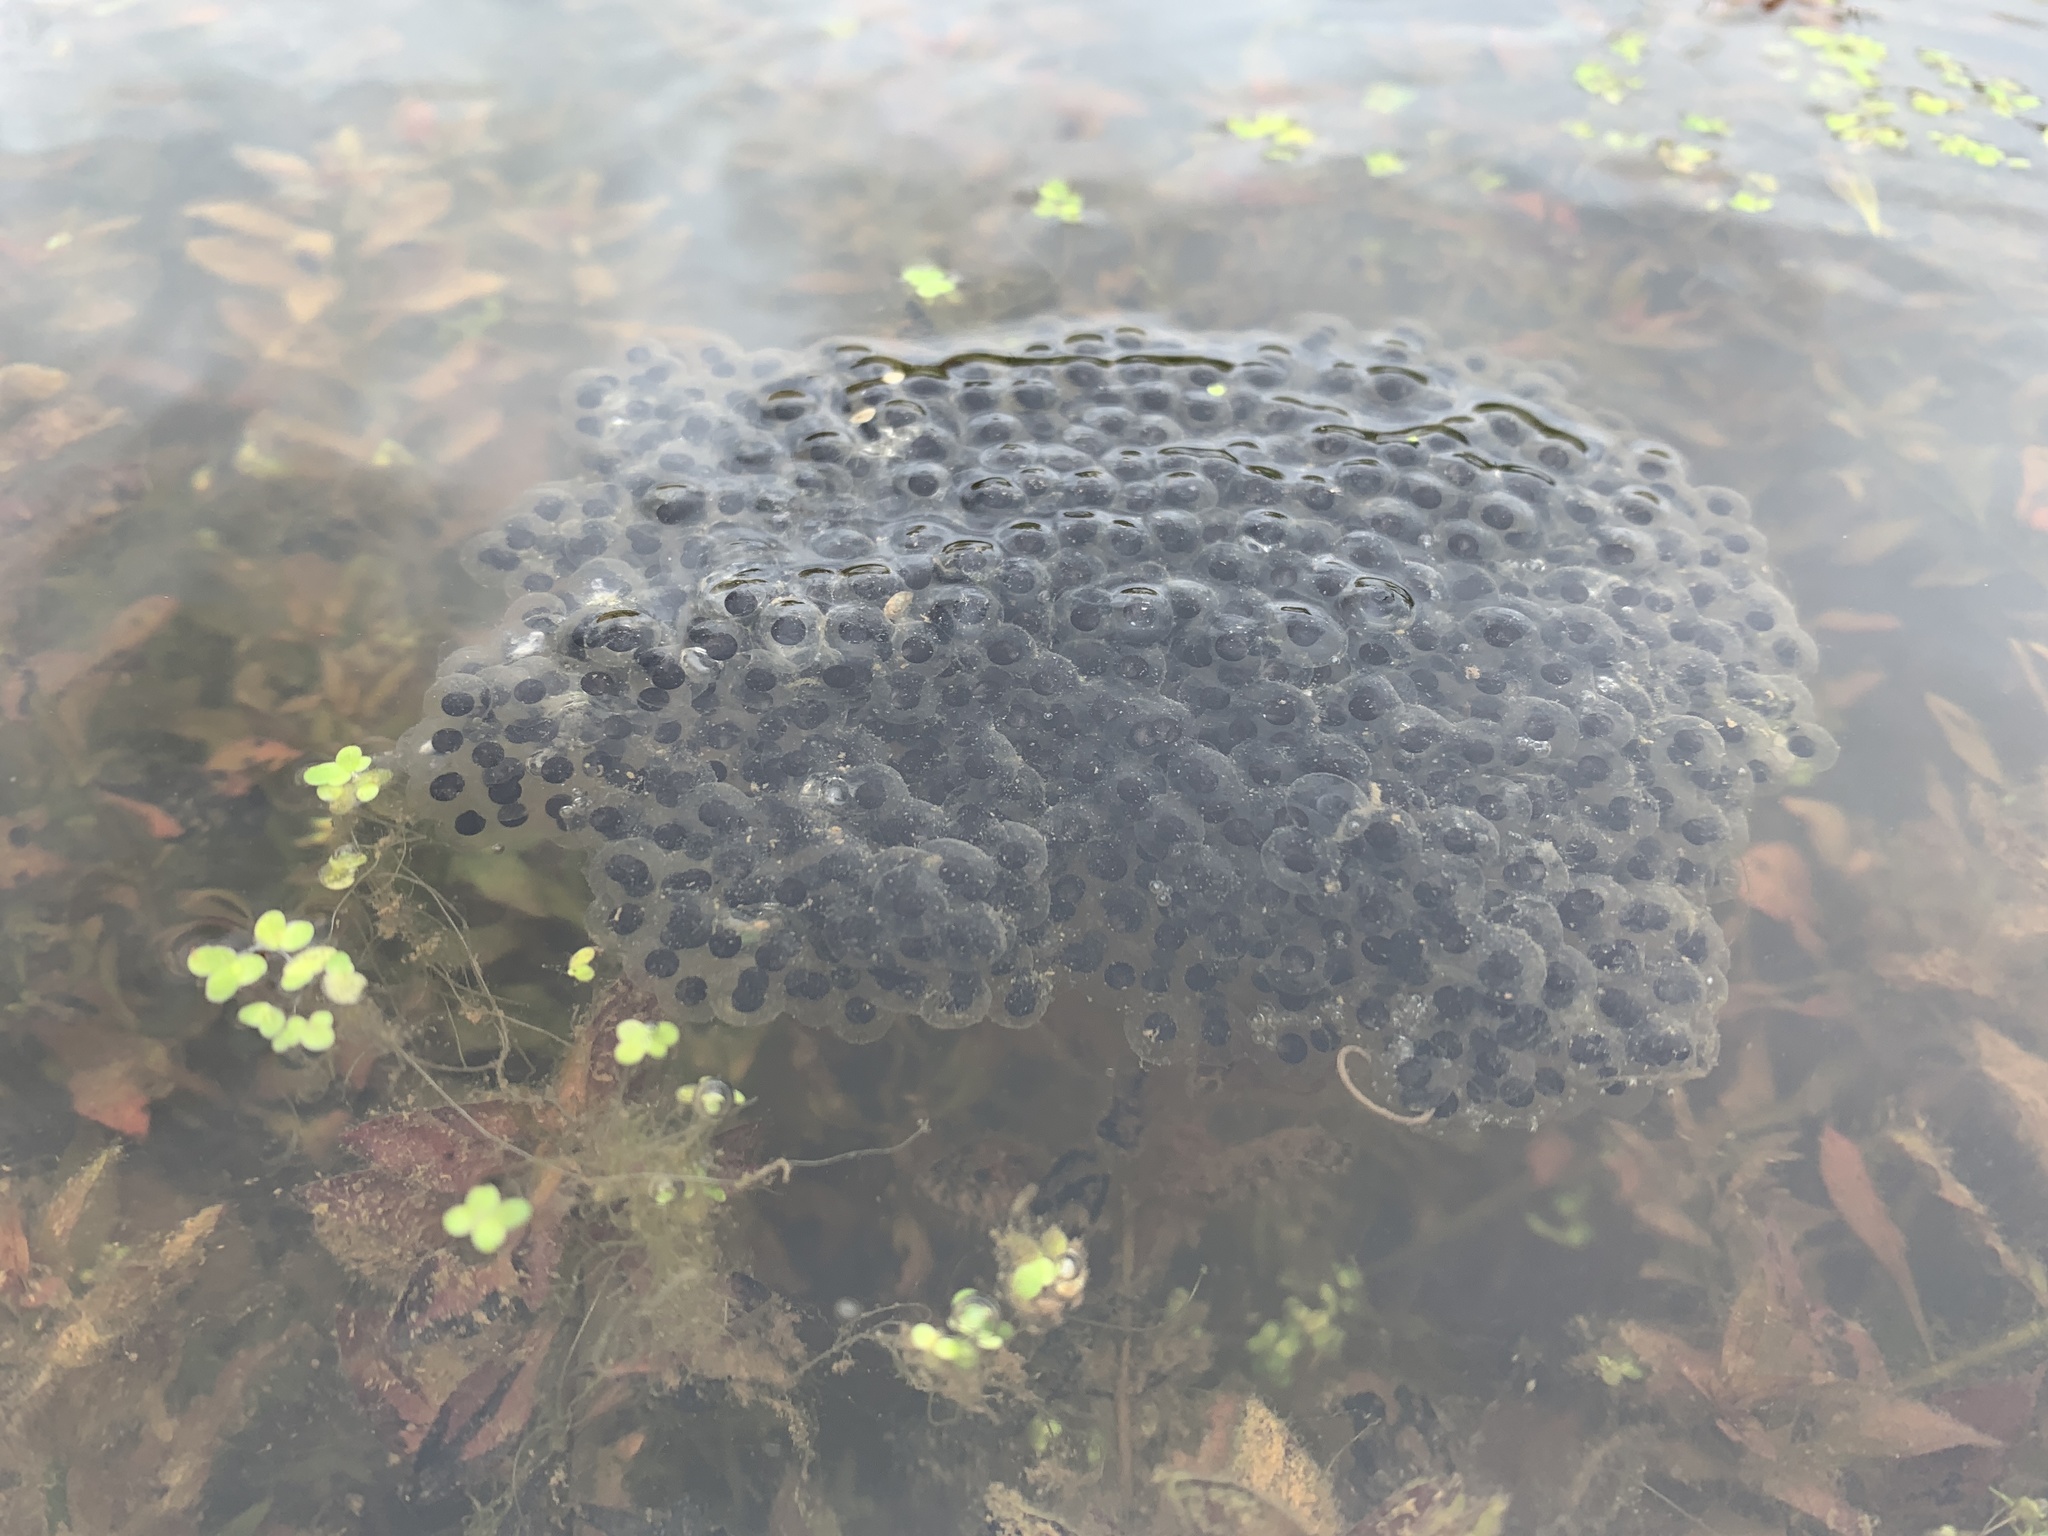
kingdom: Animalia
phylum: Chordata
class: Amphibia
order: Anura
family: Ranidae
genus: Lithobates
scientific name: Lithobates sylvaticus
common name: Wood frog
